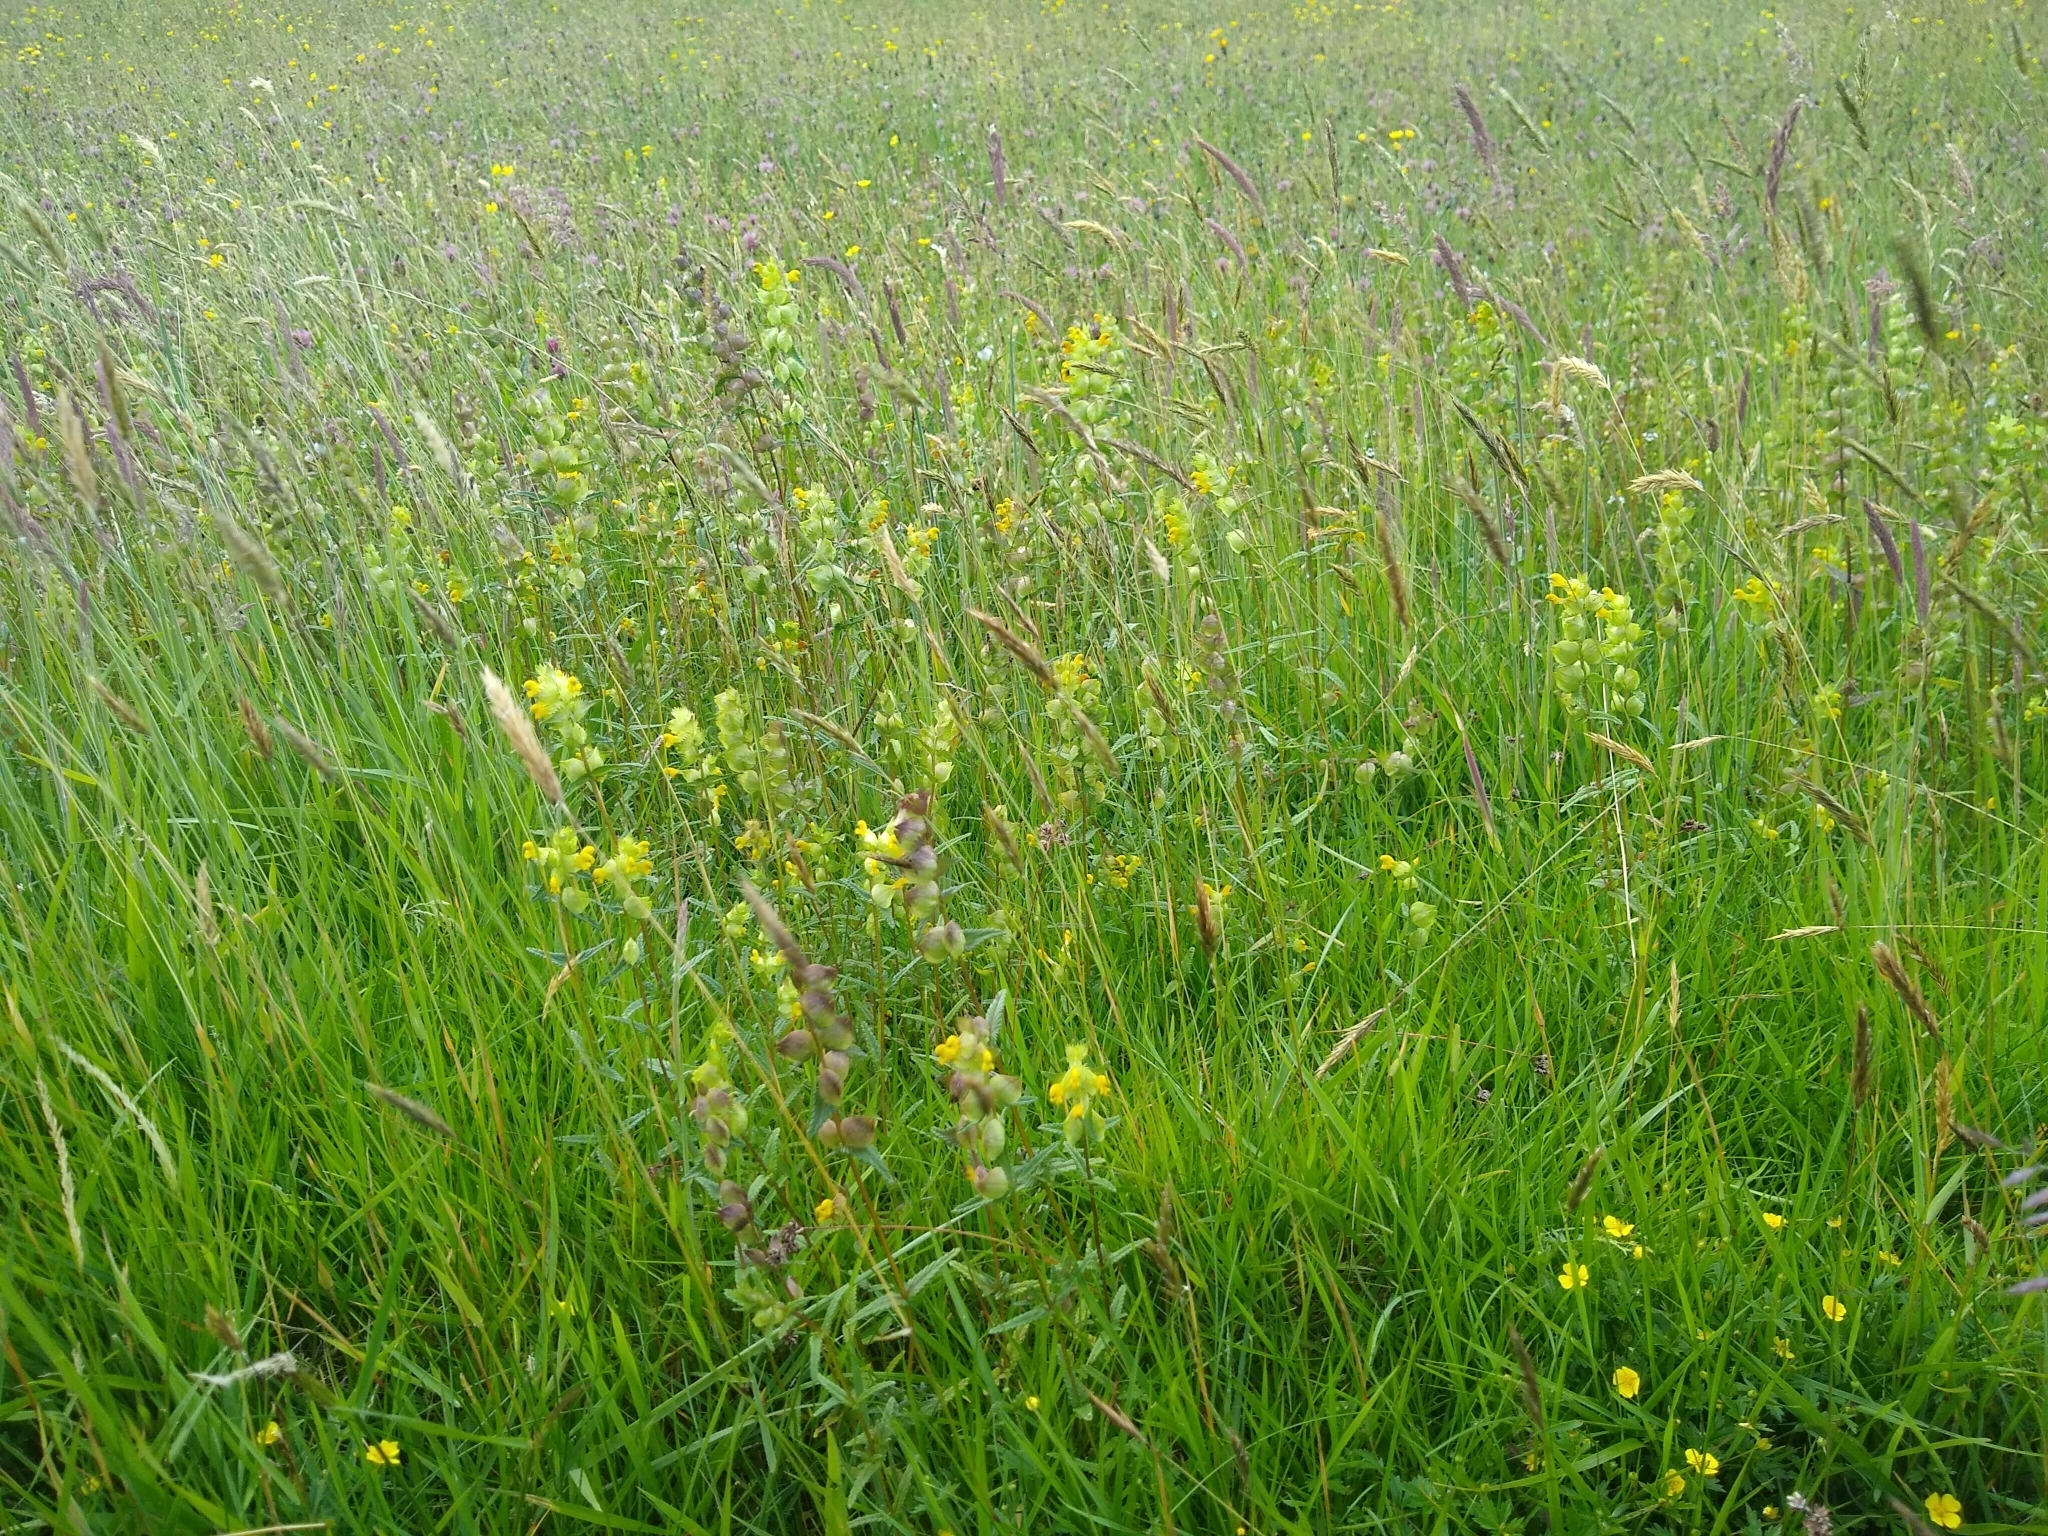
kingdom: Plantae
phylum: Tracheophyta
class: Magnoliopsida
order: Lamiales
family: Orobanchaceae
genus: Rhinanthus
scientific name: Rhinanthus minor
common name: Yellow-rattle
